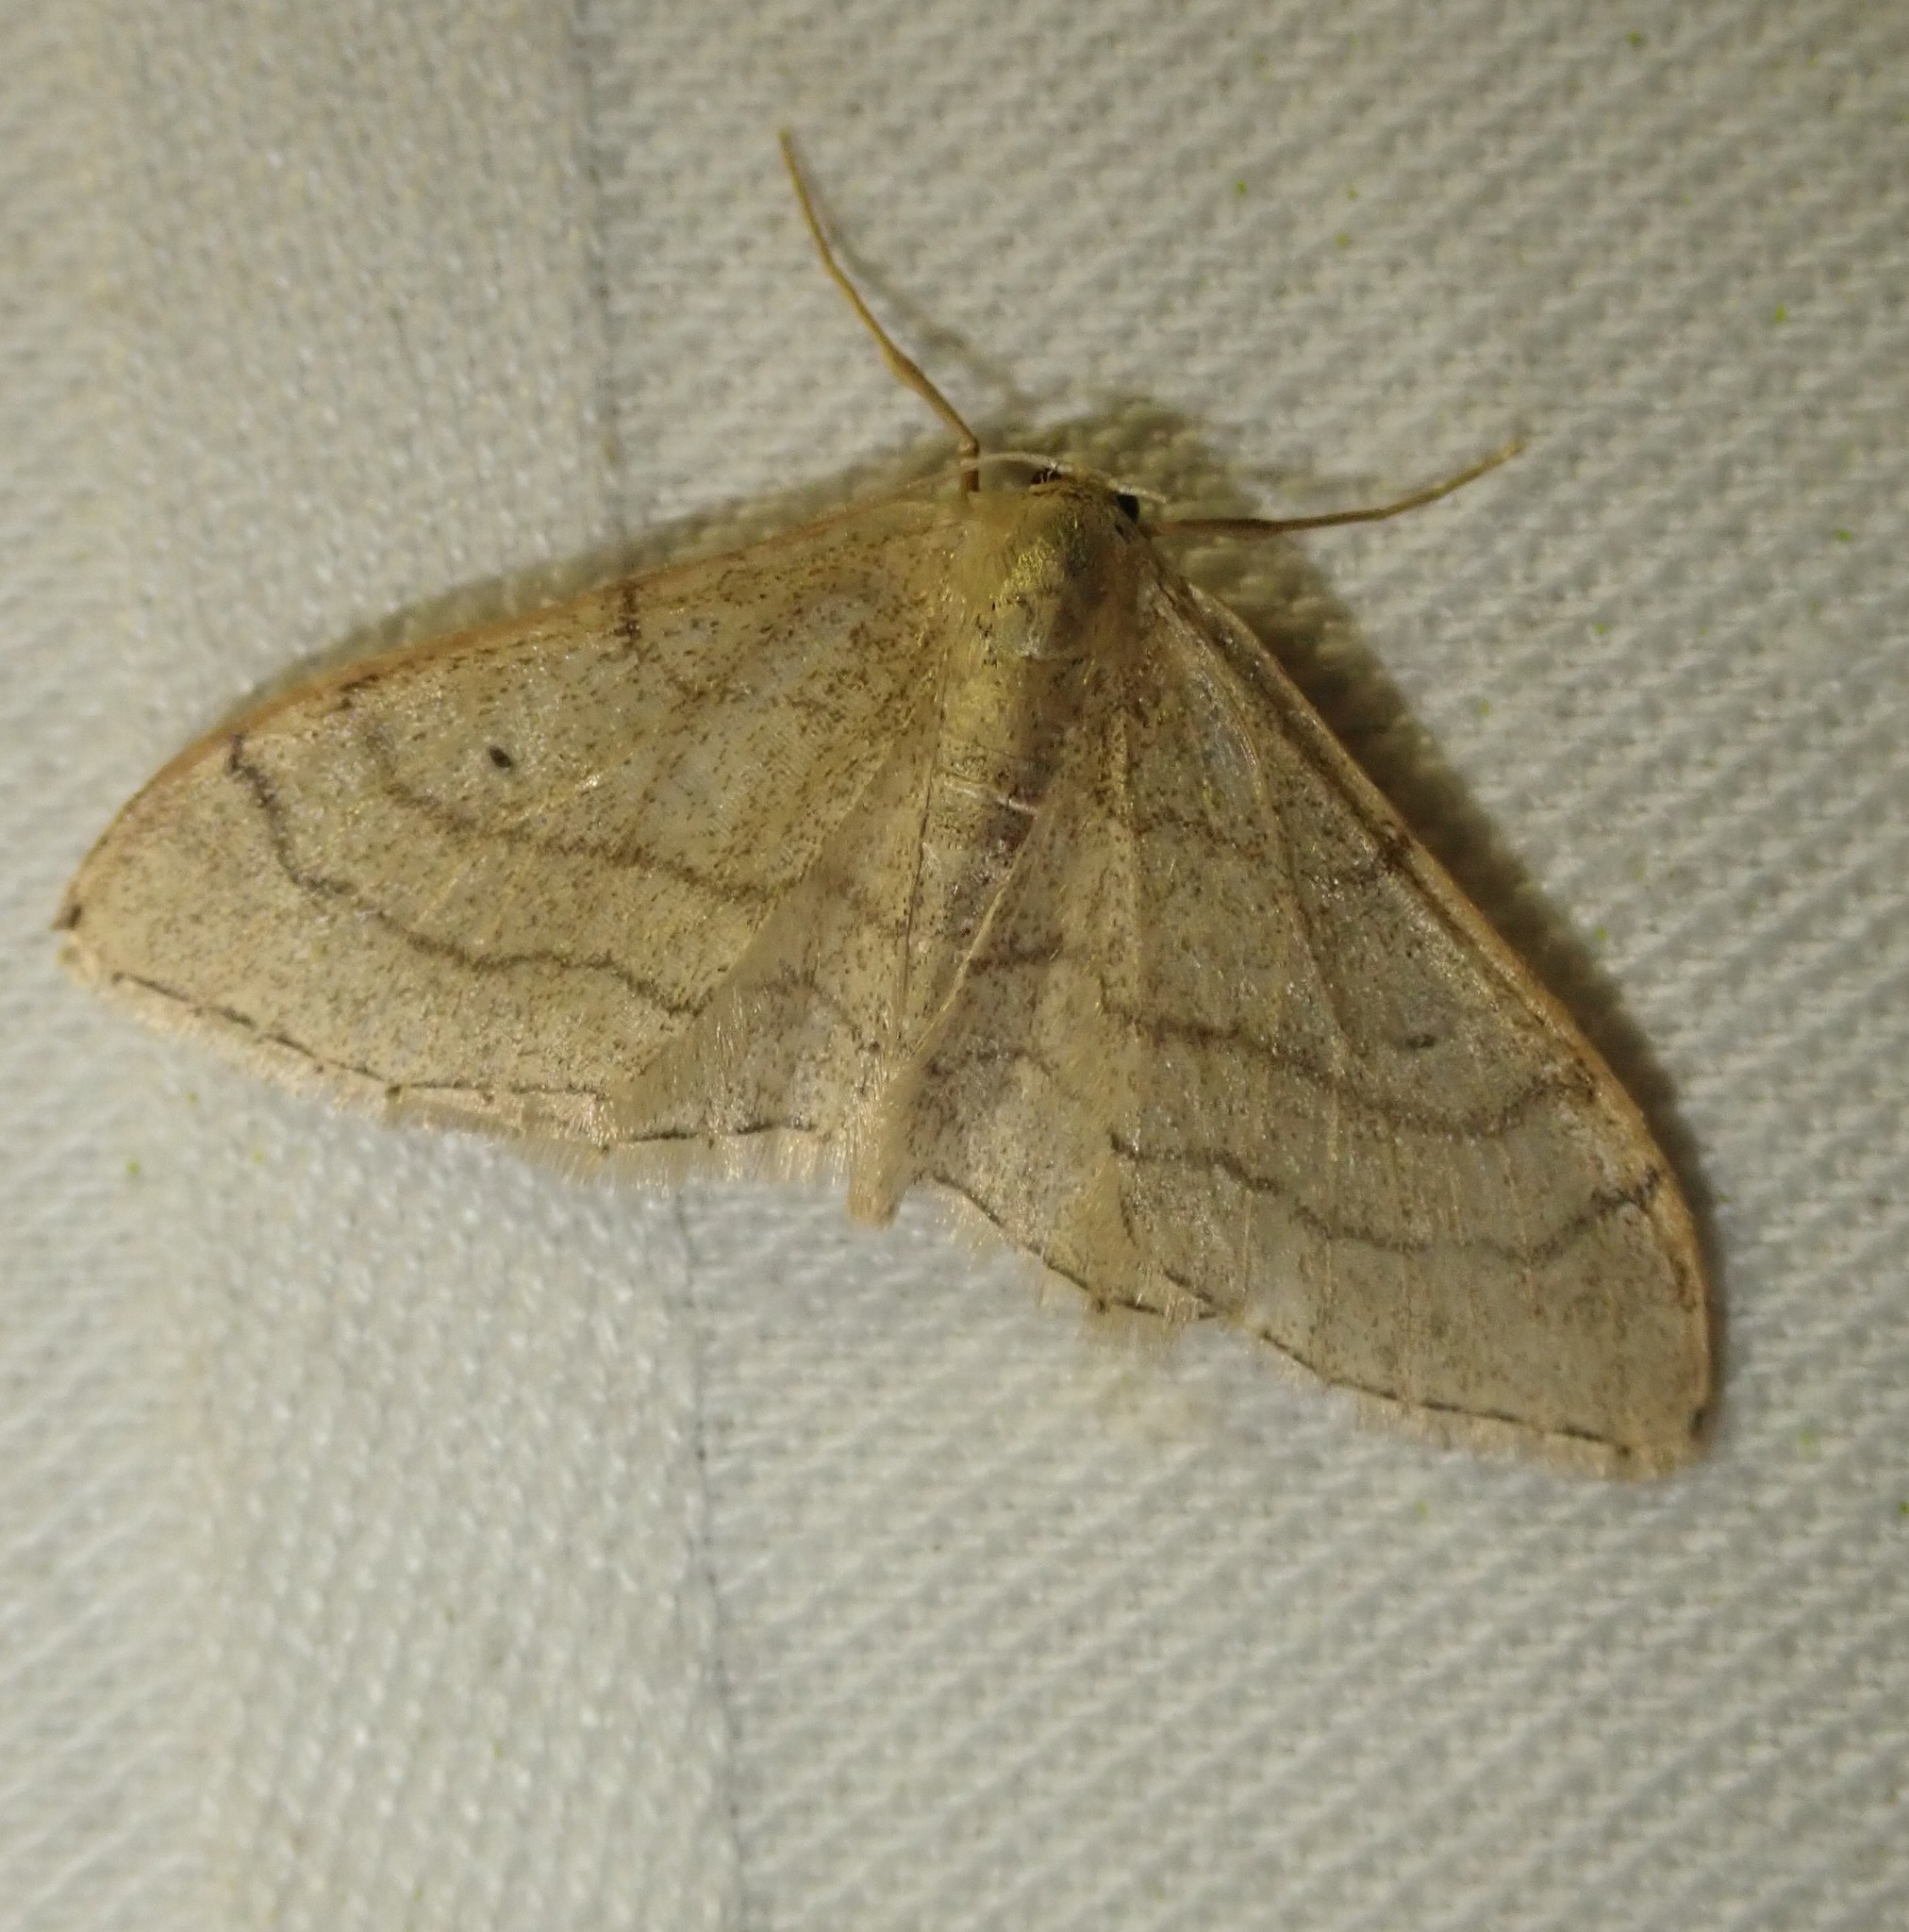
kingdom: Animalia
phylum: Arthropoda
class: Insecta
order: Lepidoptera
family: Geometridae
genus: Idaea
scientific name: Idaea aversata
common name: Riband wave
